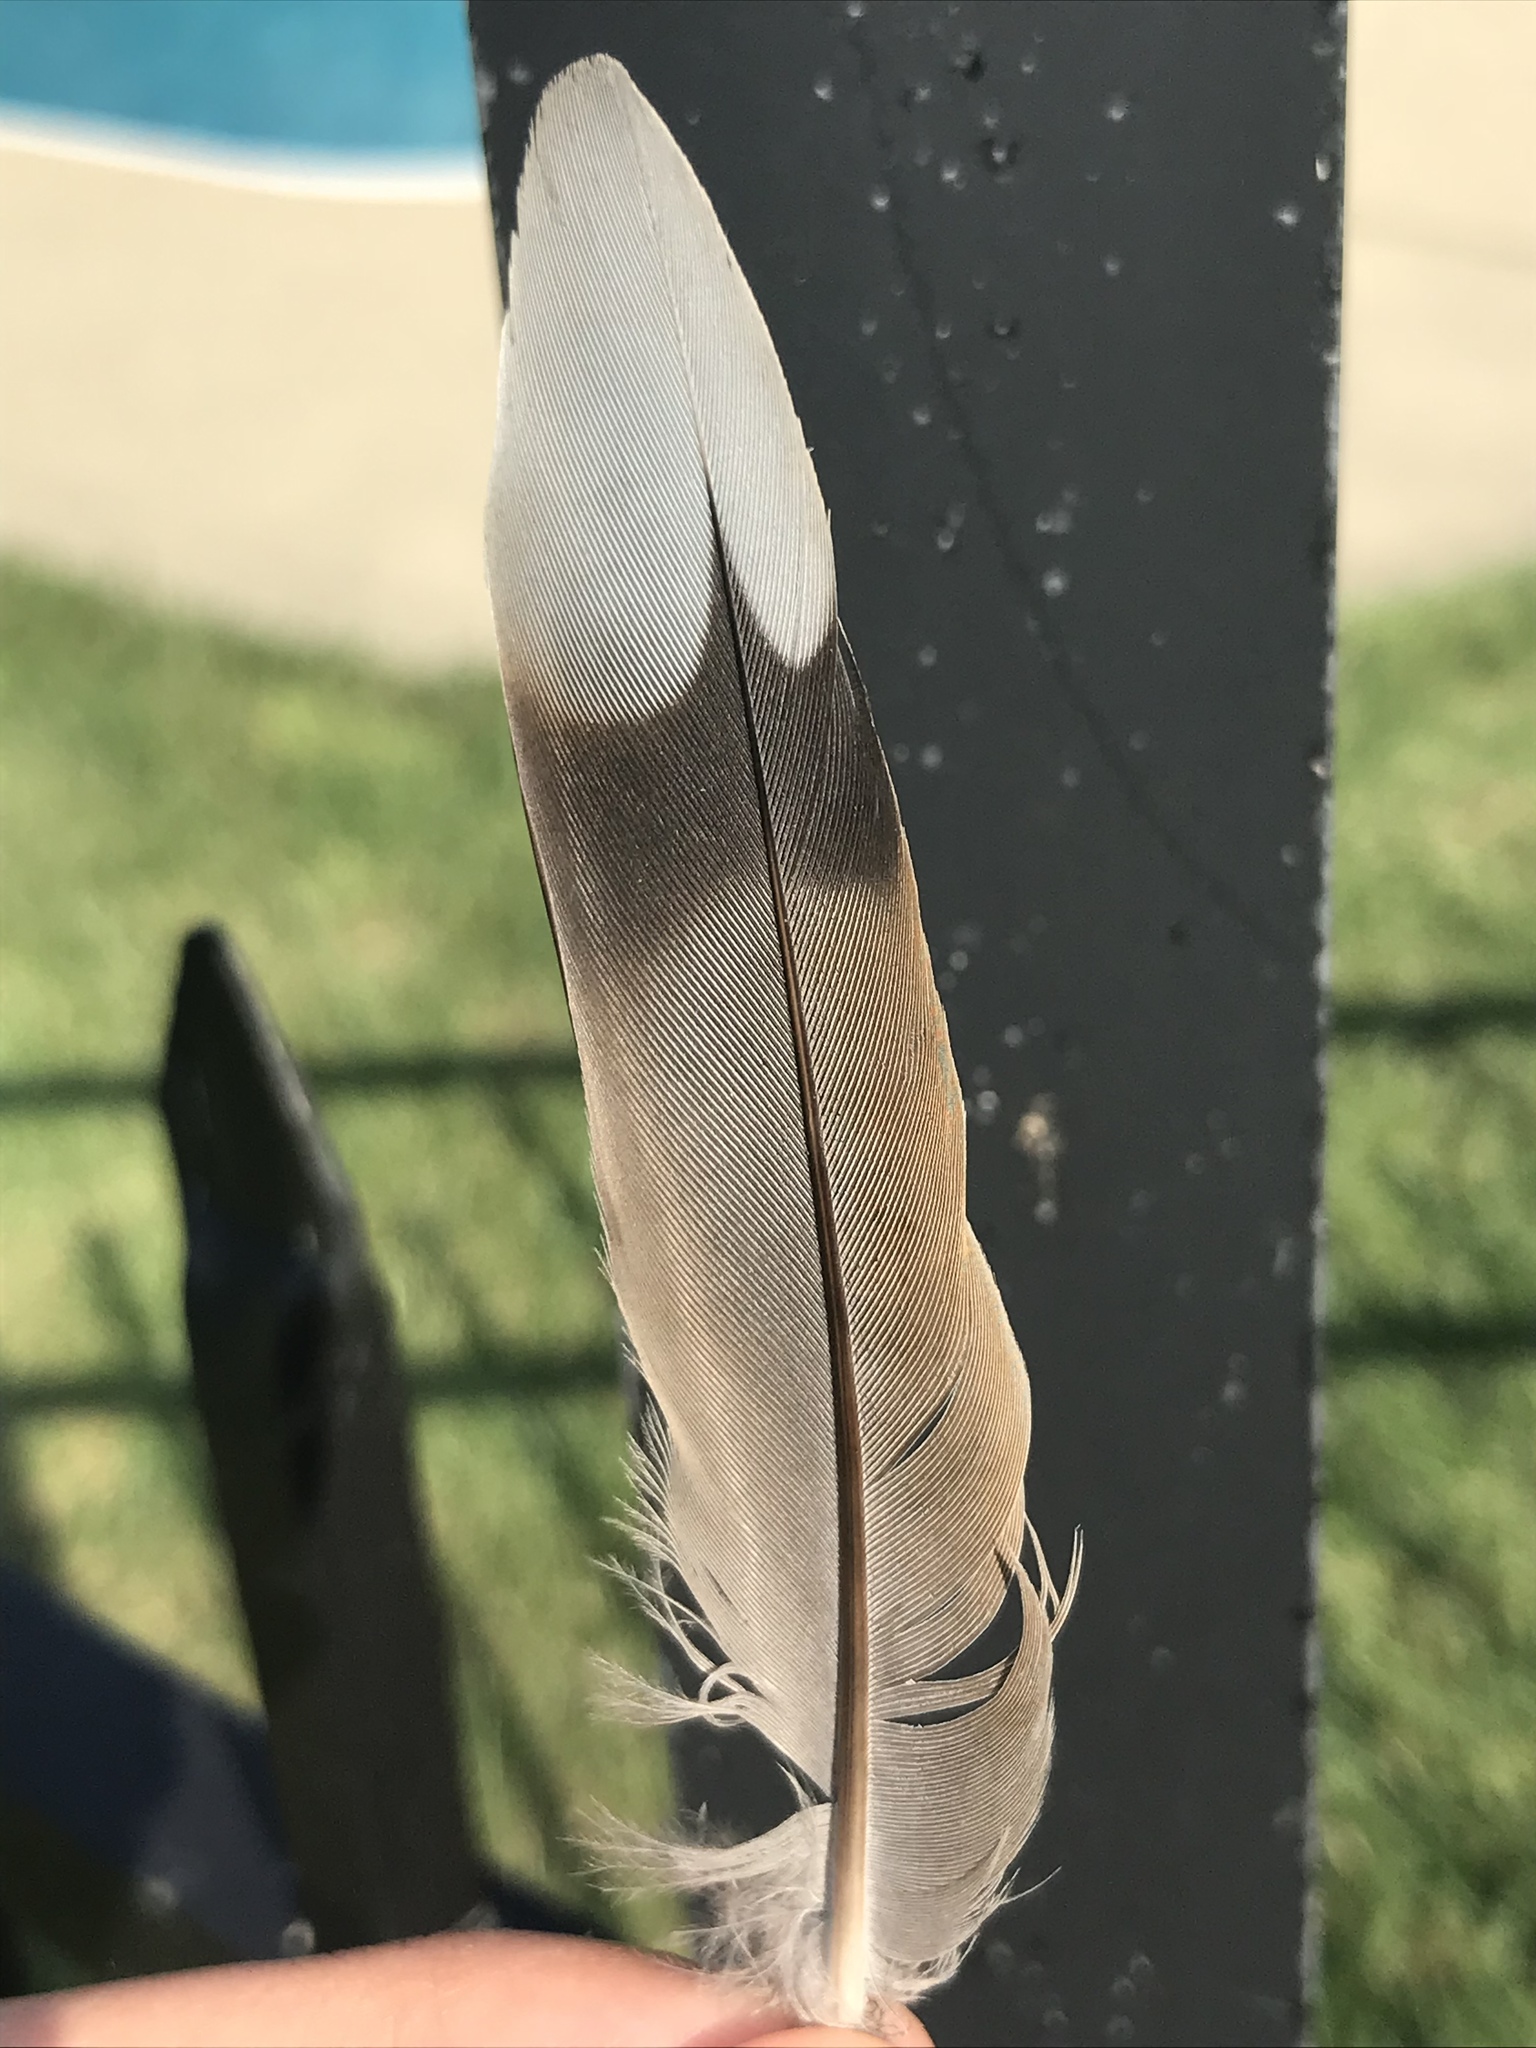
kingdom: Animalia
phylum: Chordata
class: Aves
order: Columbiformes
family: Columbidae
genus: Zenaida
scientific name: Zenaida macroura
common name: Mourning dove
